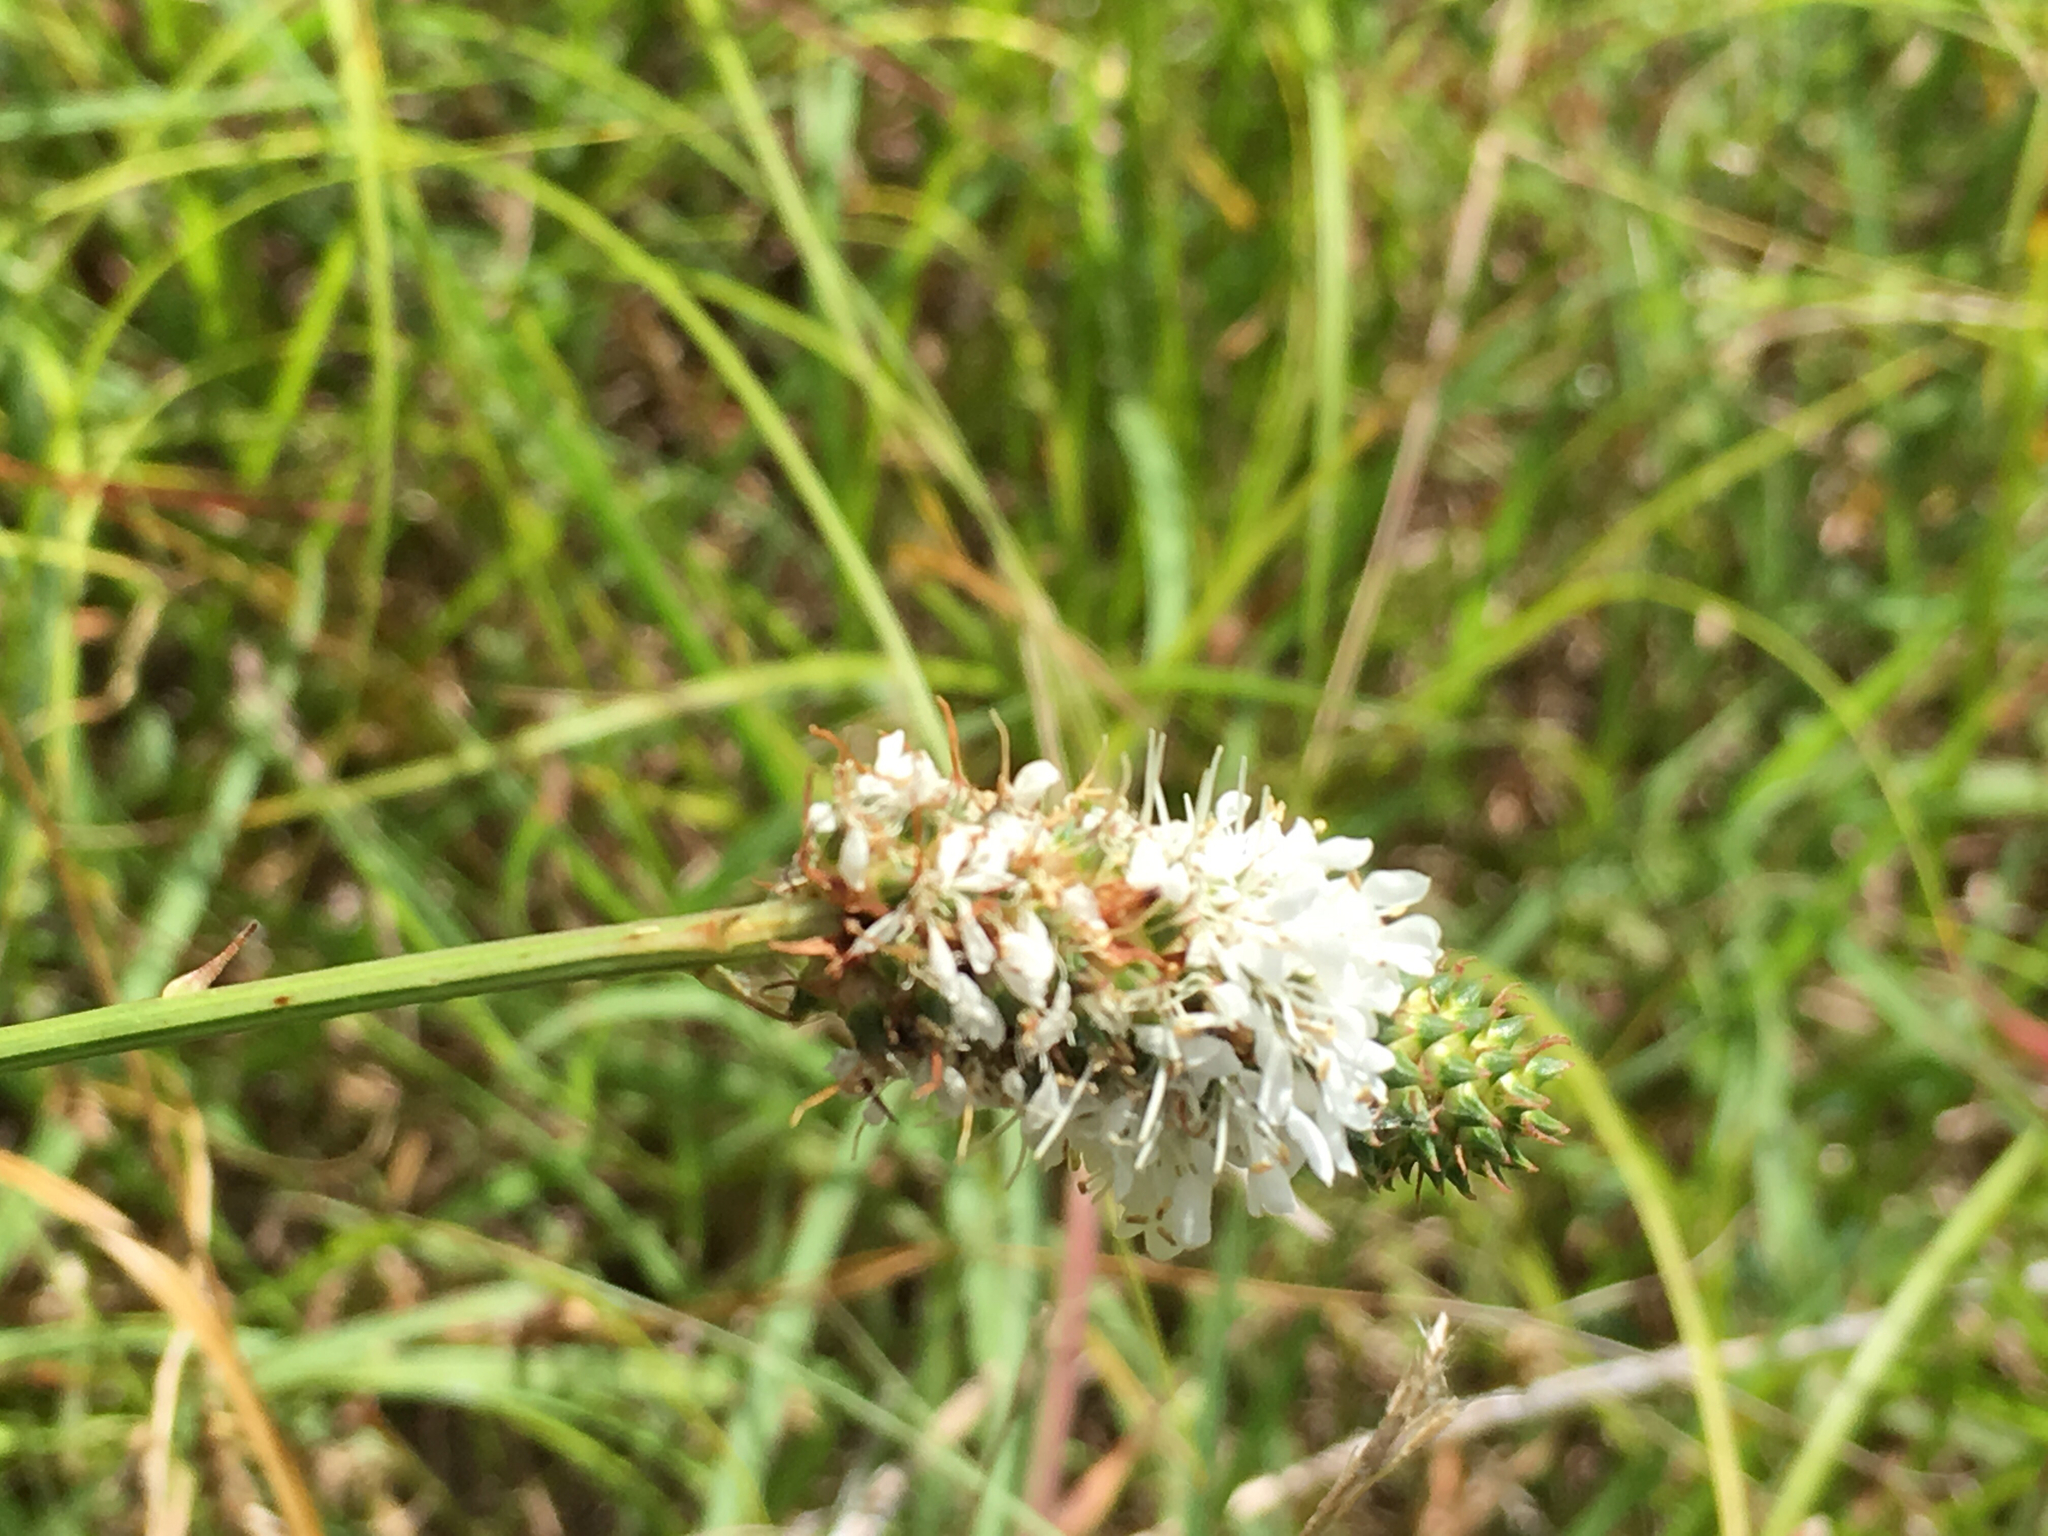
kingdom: Plantae
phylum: Tracheophyta
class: Magnoliopsida
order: Fabales
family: Fabaceae
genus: Dalea
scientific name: Dalea candida
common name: White prairie-clover
